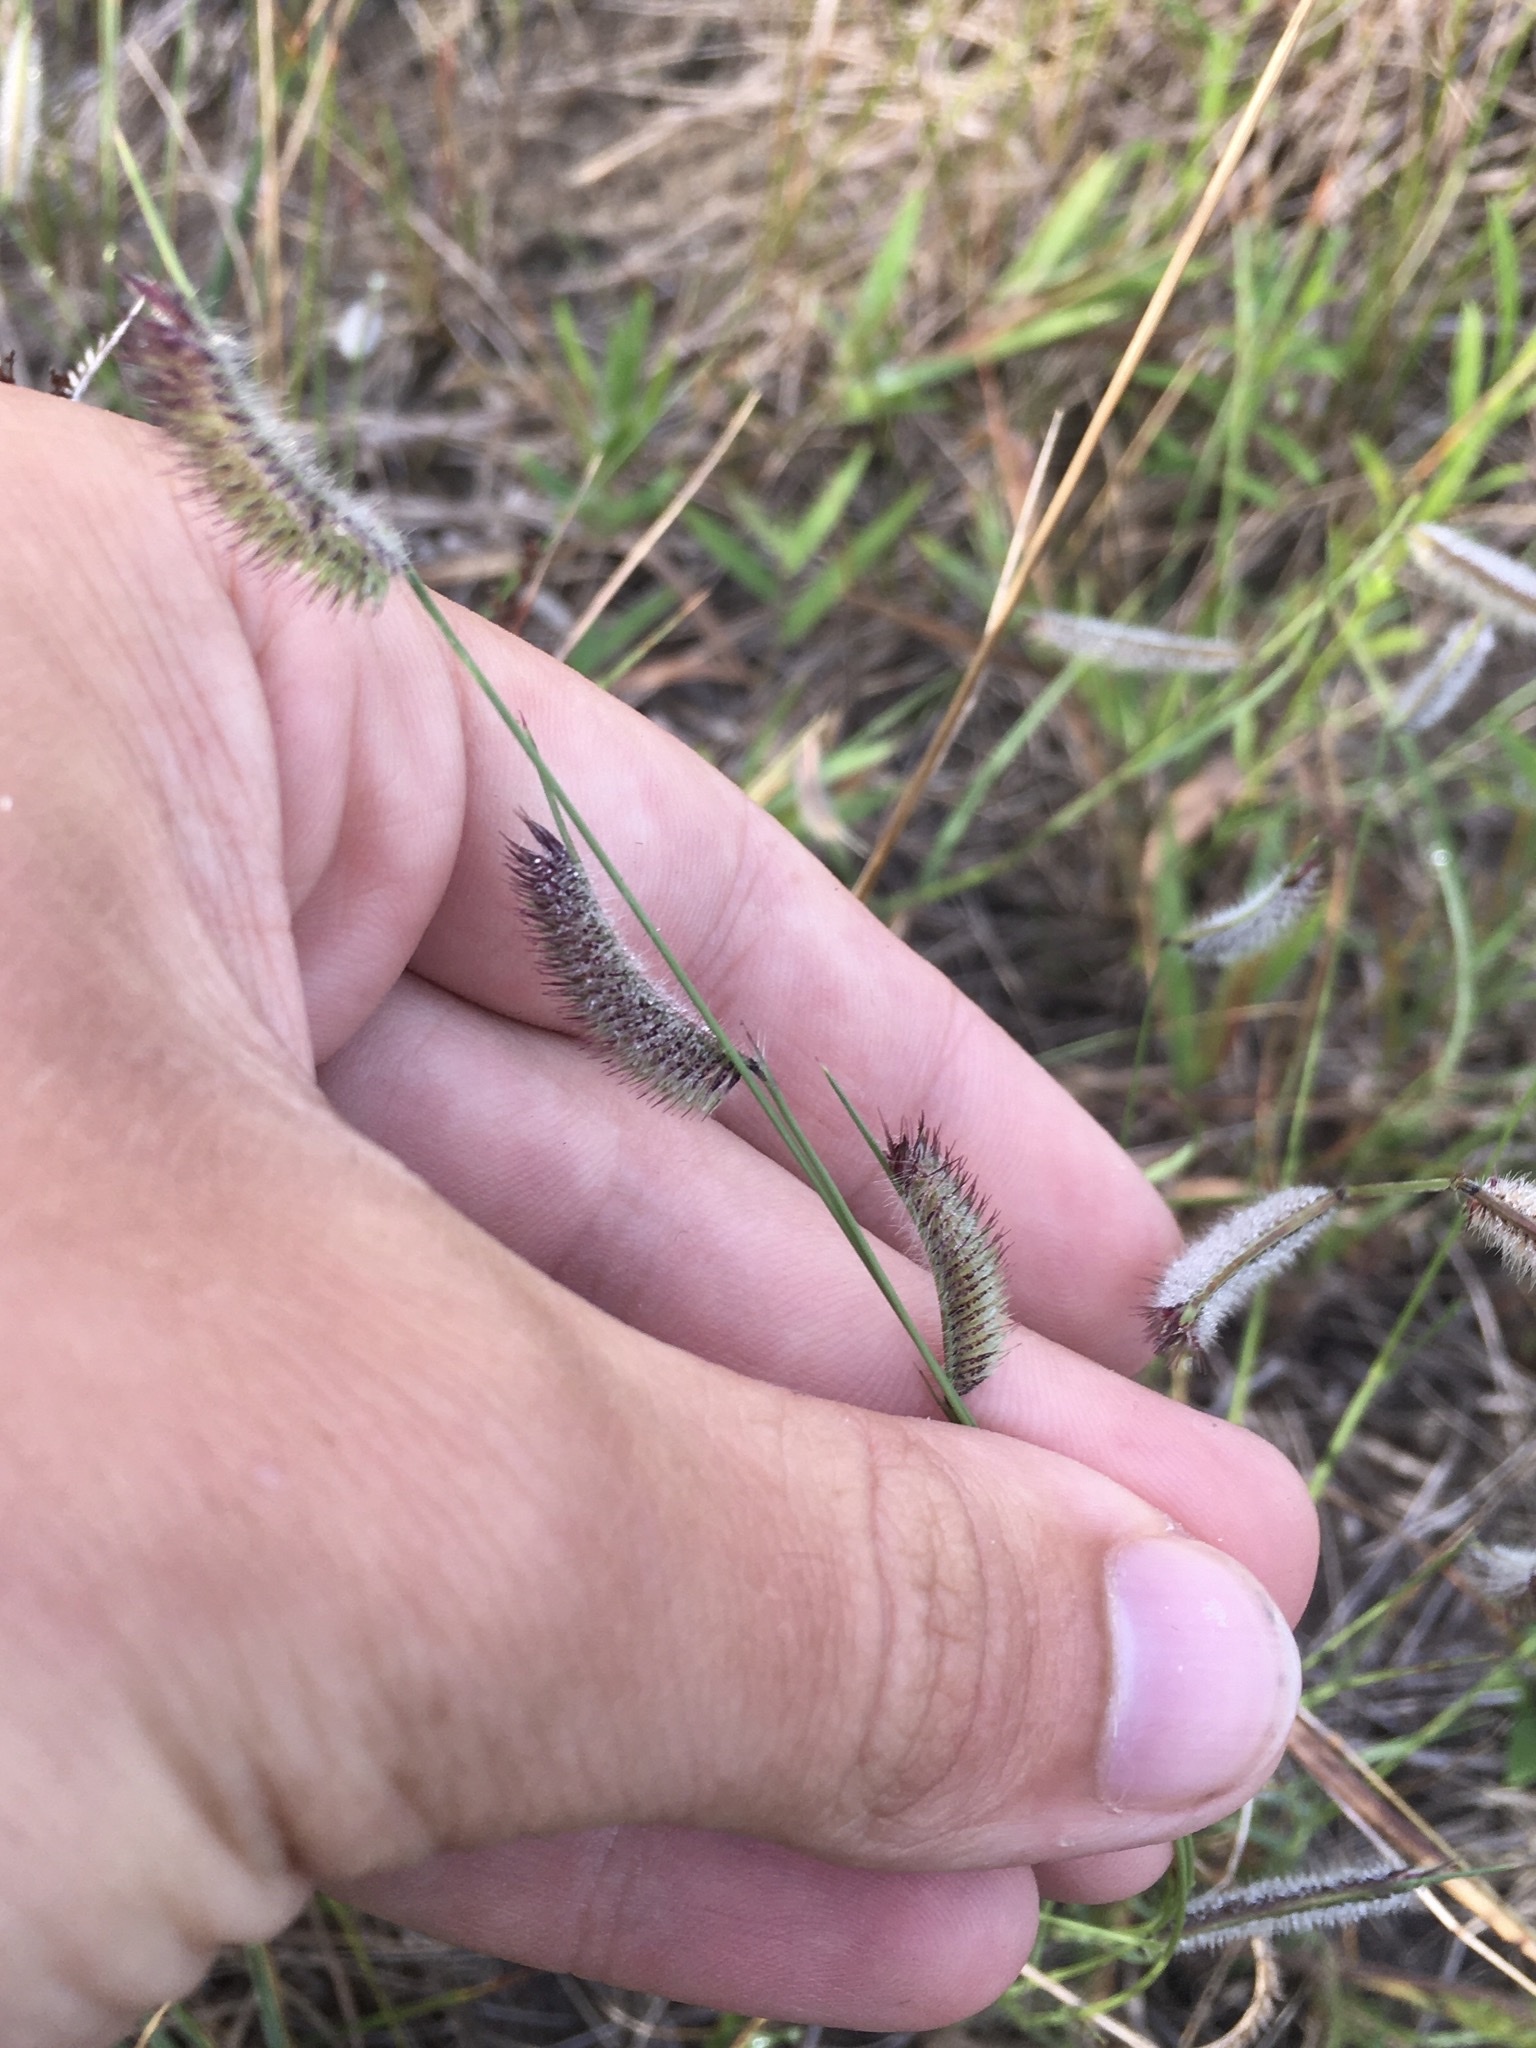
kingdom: Plantae
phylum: Tracheophyta
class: Liliopsida
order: Poales
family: Poaceae
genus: Bouteloua
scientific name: Bouteloua hirsuta
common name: Hairy grama
